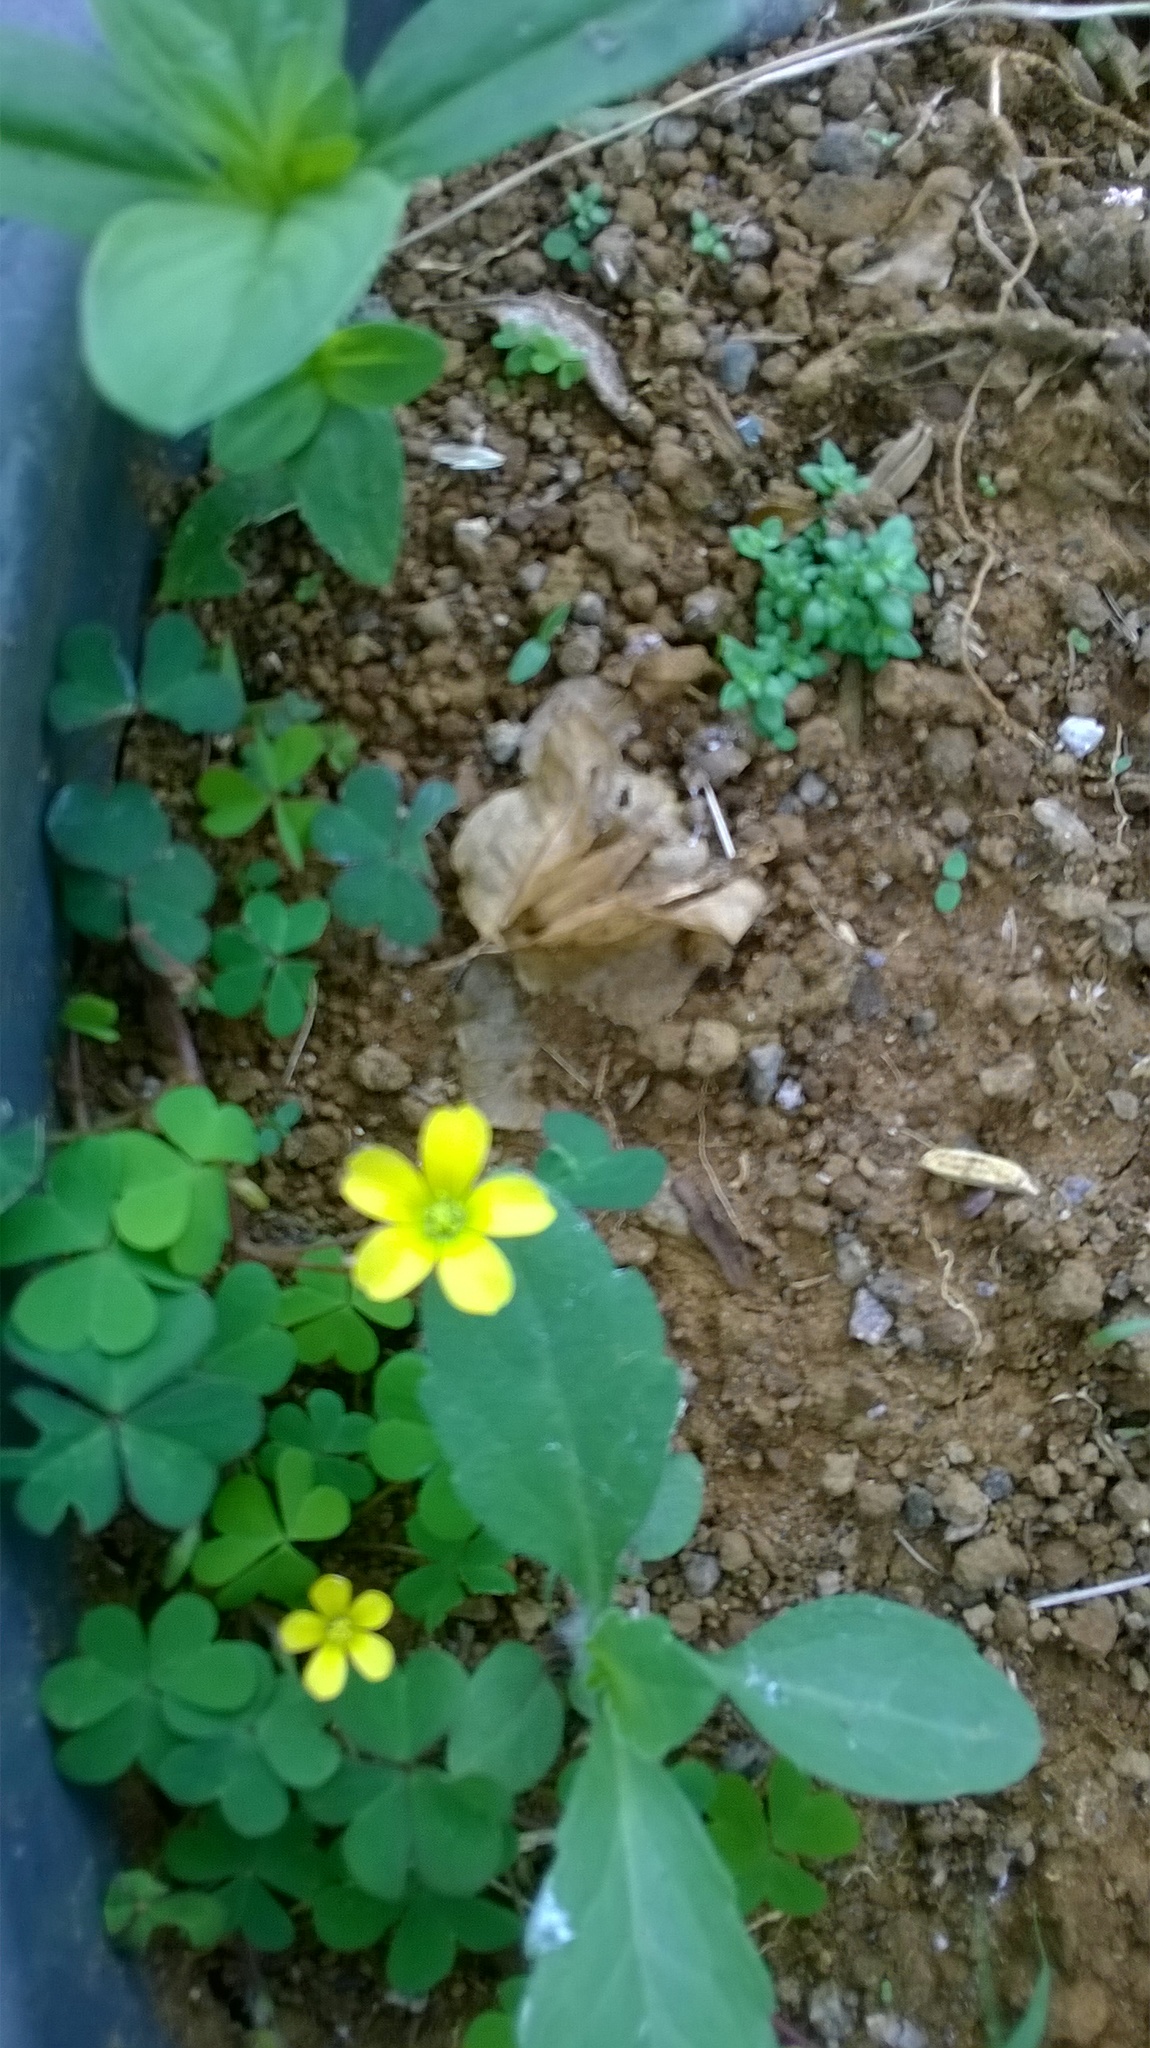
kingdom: Plantae
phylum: Tracheophyta
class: Magnoliopsida
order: Oxalidales
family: Oxalidaceae
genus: Oxalis
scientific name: Oxalis corniculata
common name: Procumbent yellow-sorrel
